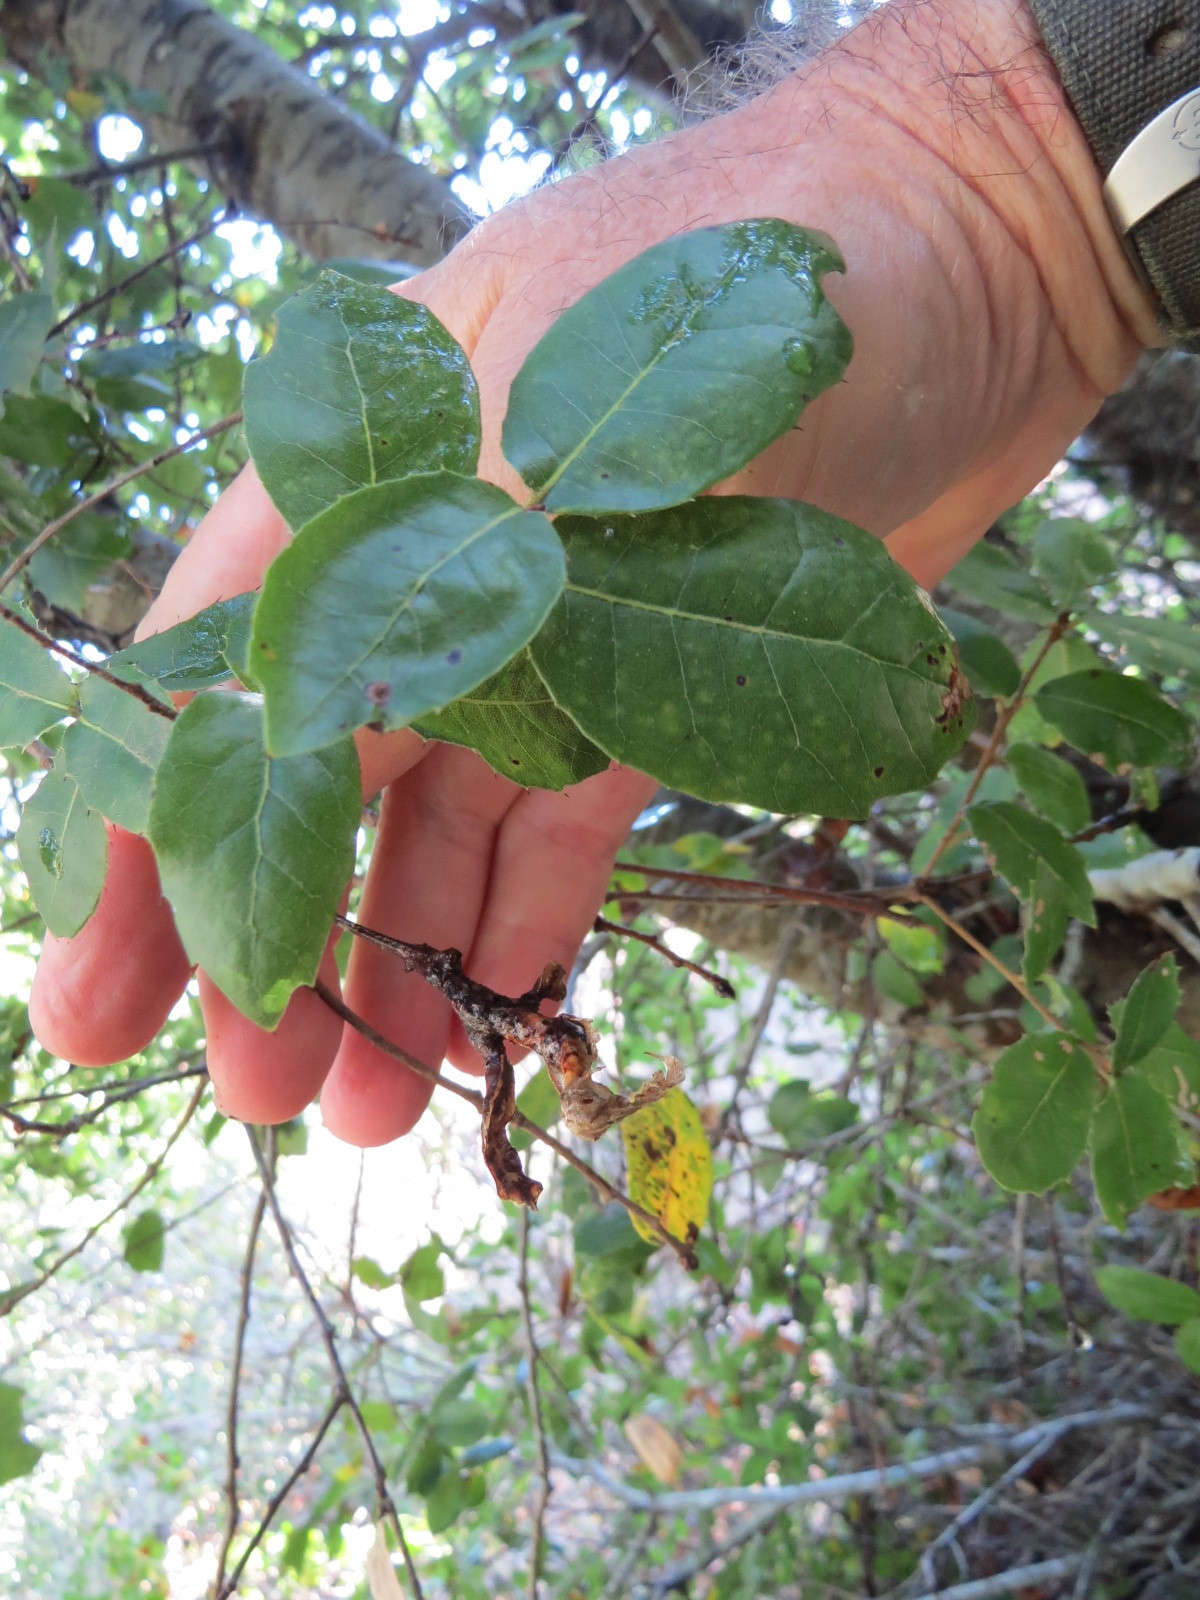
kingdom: Animalia
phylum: Arthropoda
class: Insecta
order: Hymenoptera
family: Cynipidae
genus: Melikaiella
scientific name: Melikaiella
